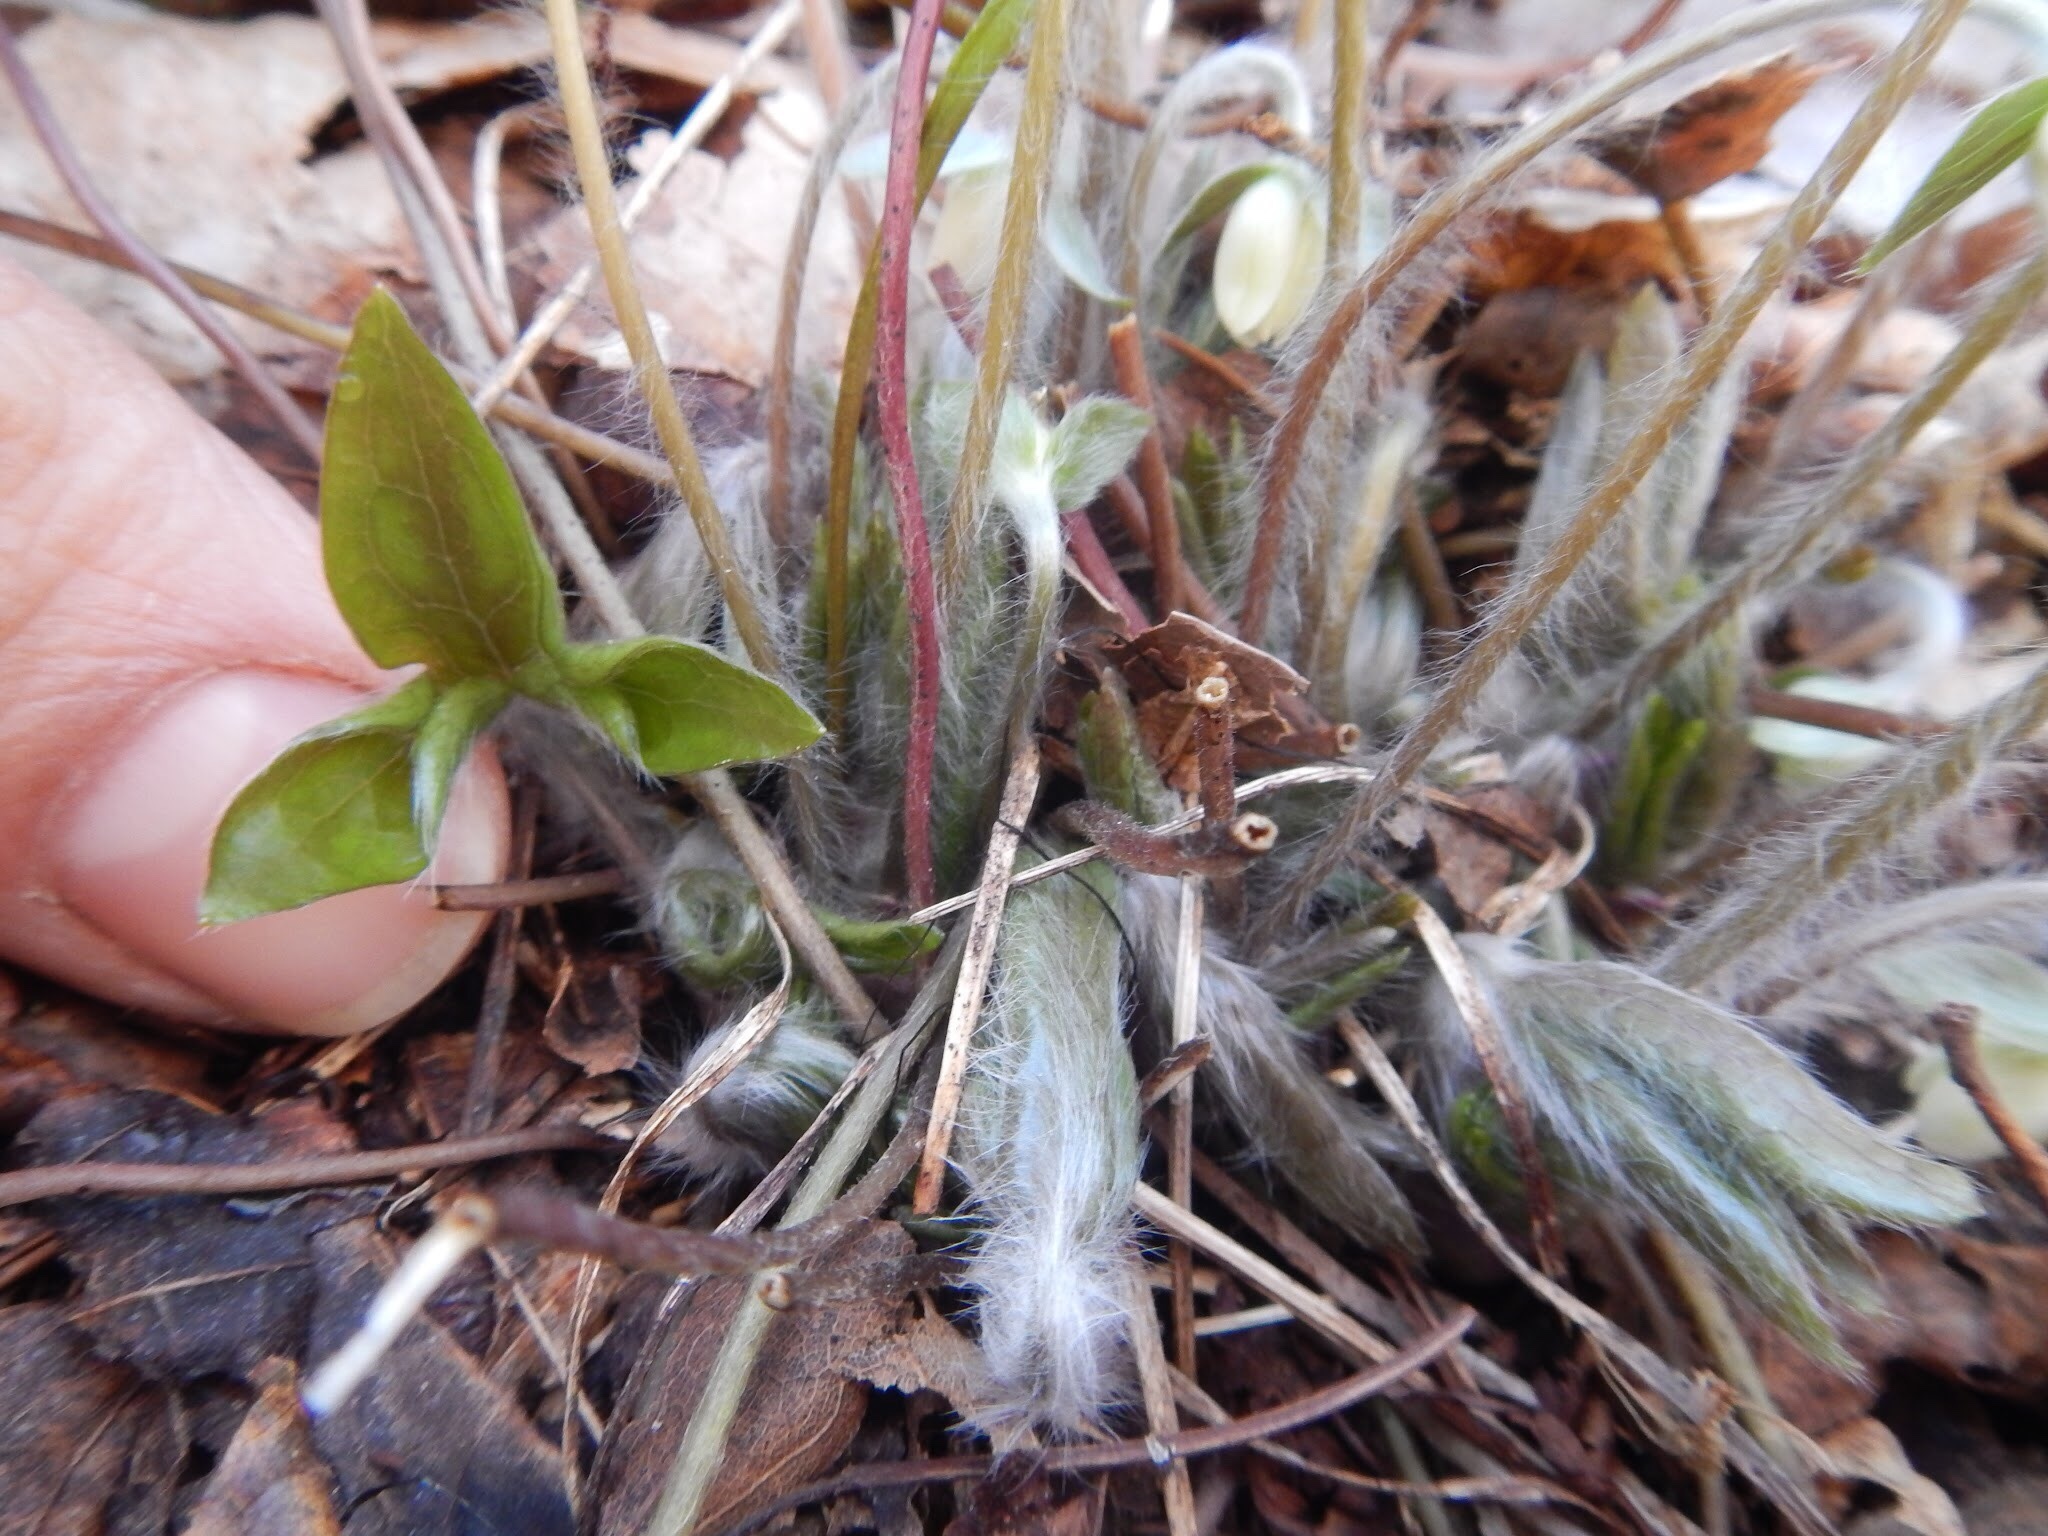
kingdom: Plantae
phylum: Tracheophyta
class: Magnoliopsida
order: Ranunculales
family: Ranunculaceae
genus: Hepatica
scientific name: Hepatica acutiloba
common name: Sharp-lobed hepatica
